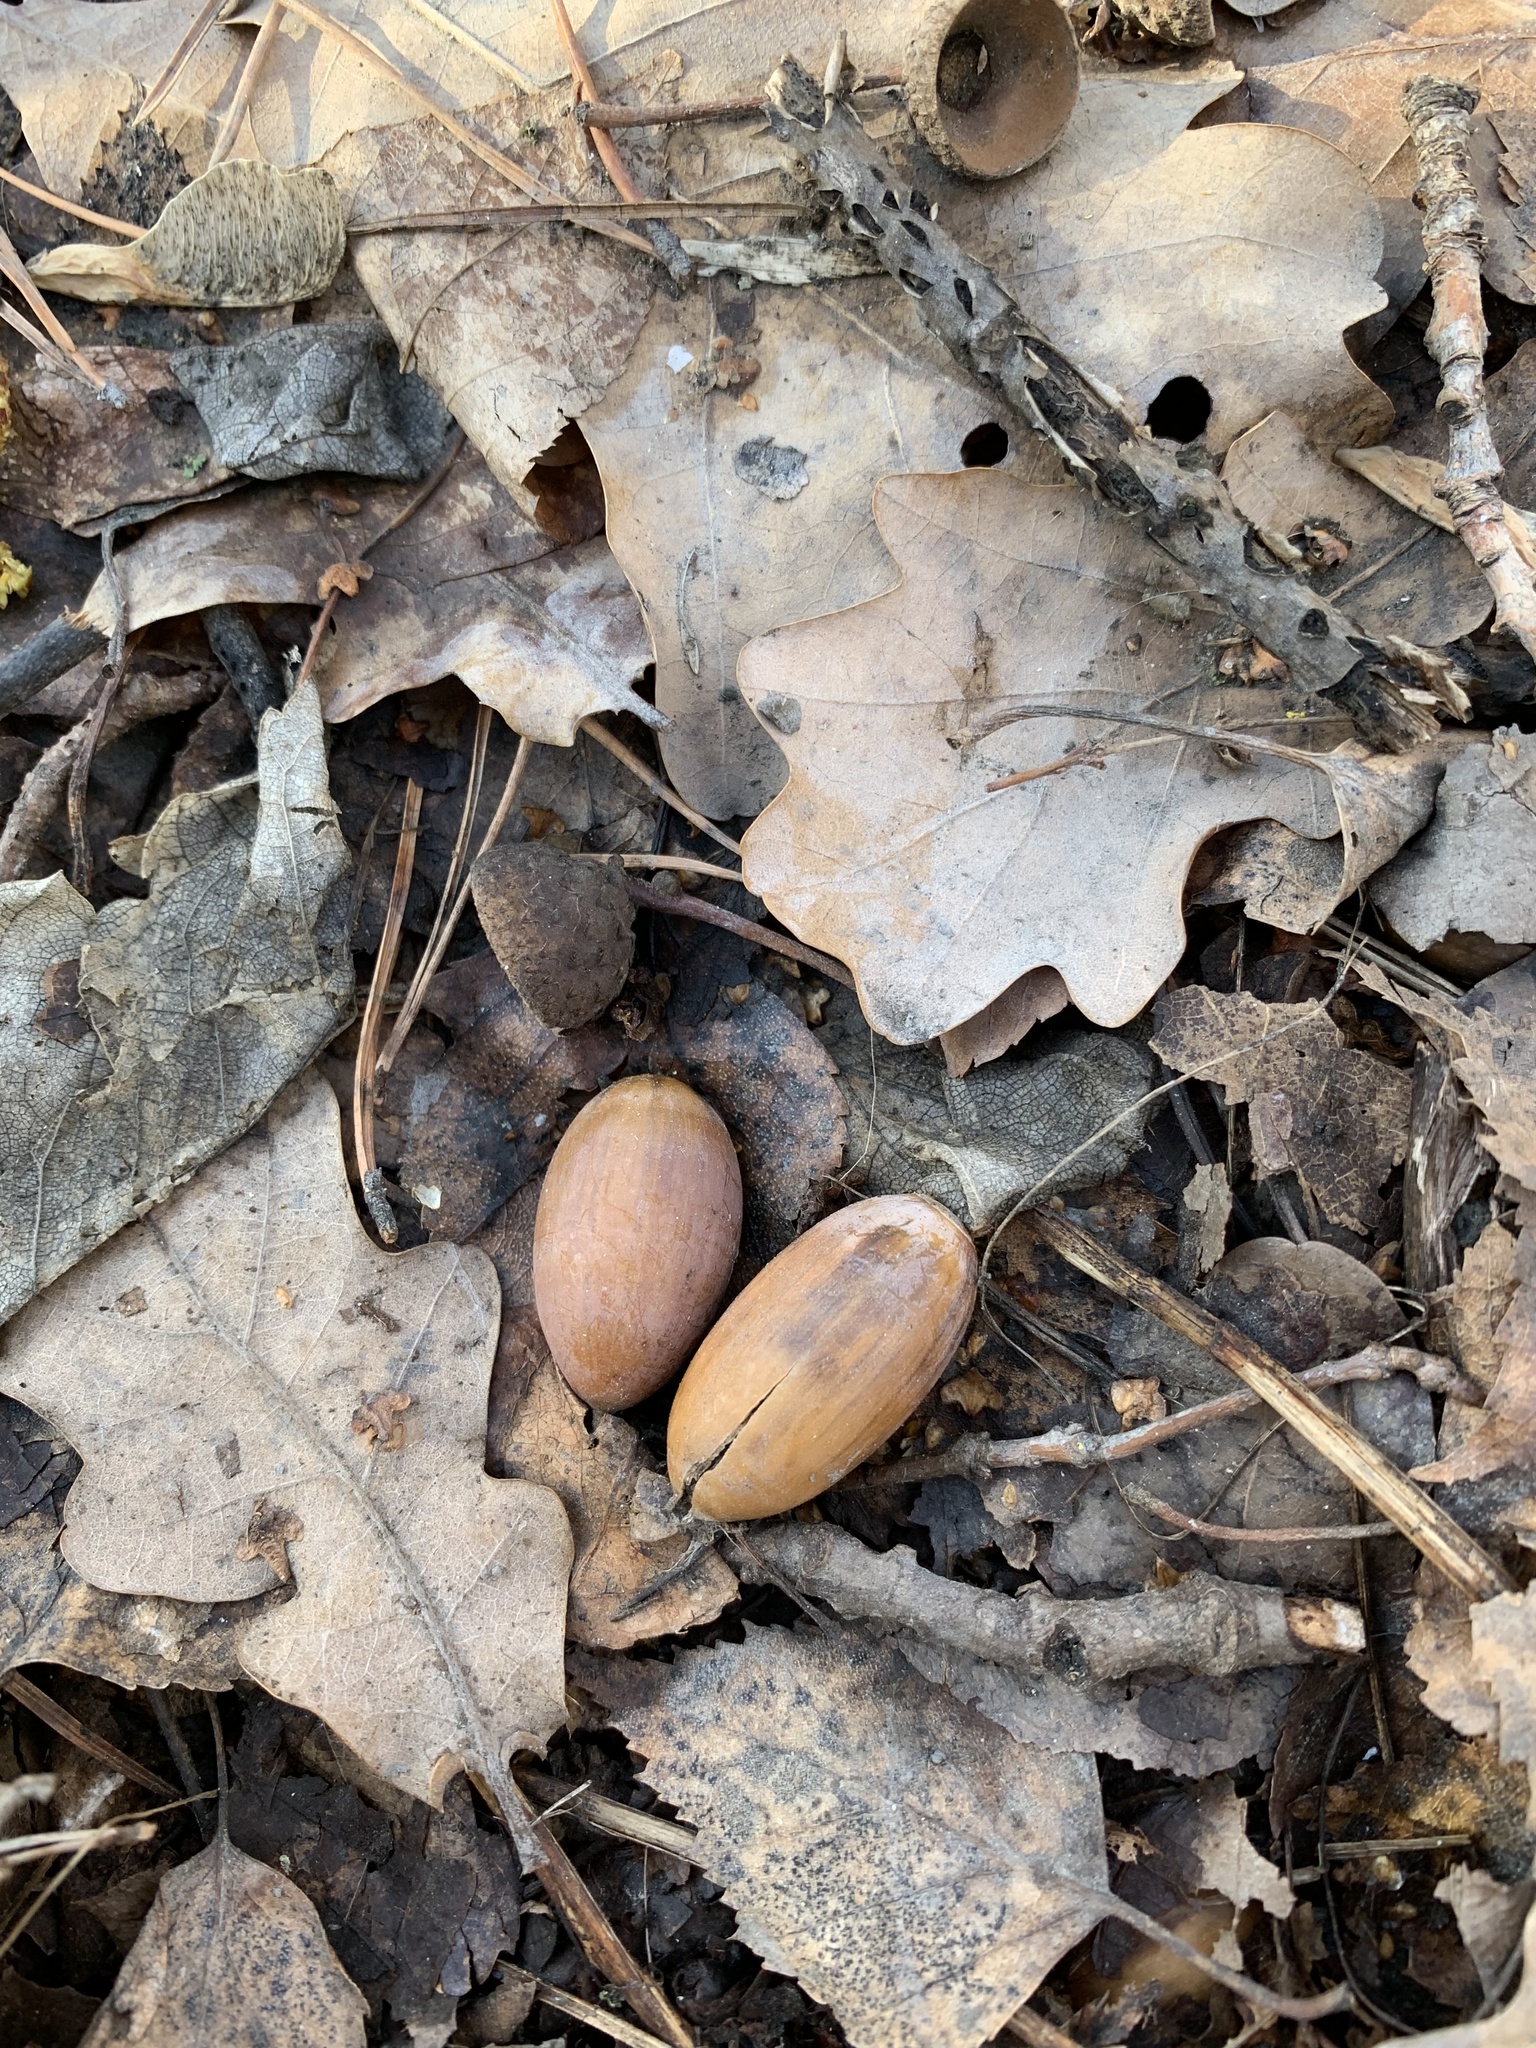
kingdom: Plantae
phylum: Tracheophyta
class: Magnoliopsida
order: Fagales
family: Fagaceae
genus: Quercus
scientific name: Quercus robur
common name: Pedunculate oak
